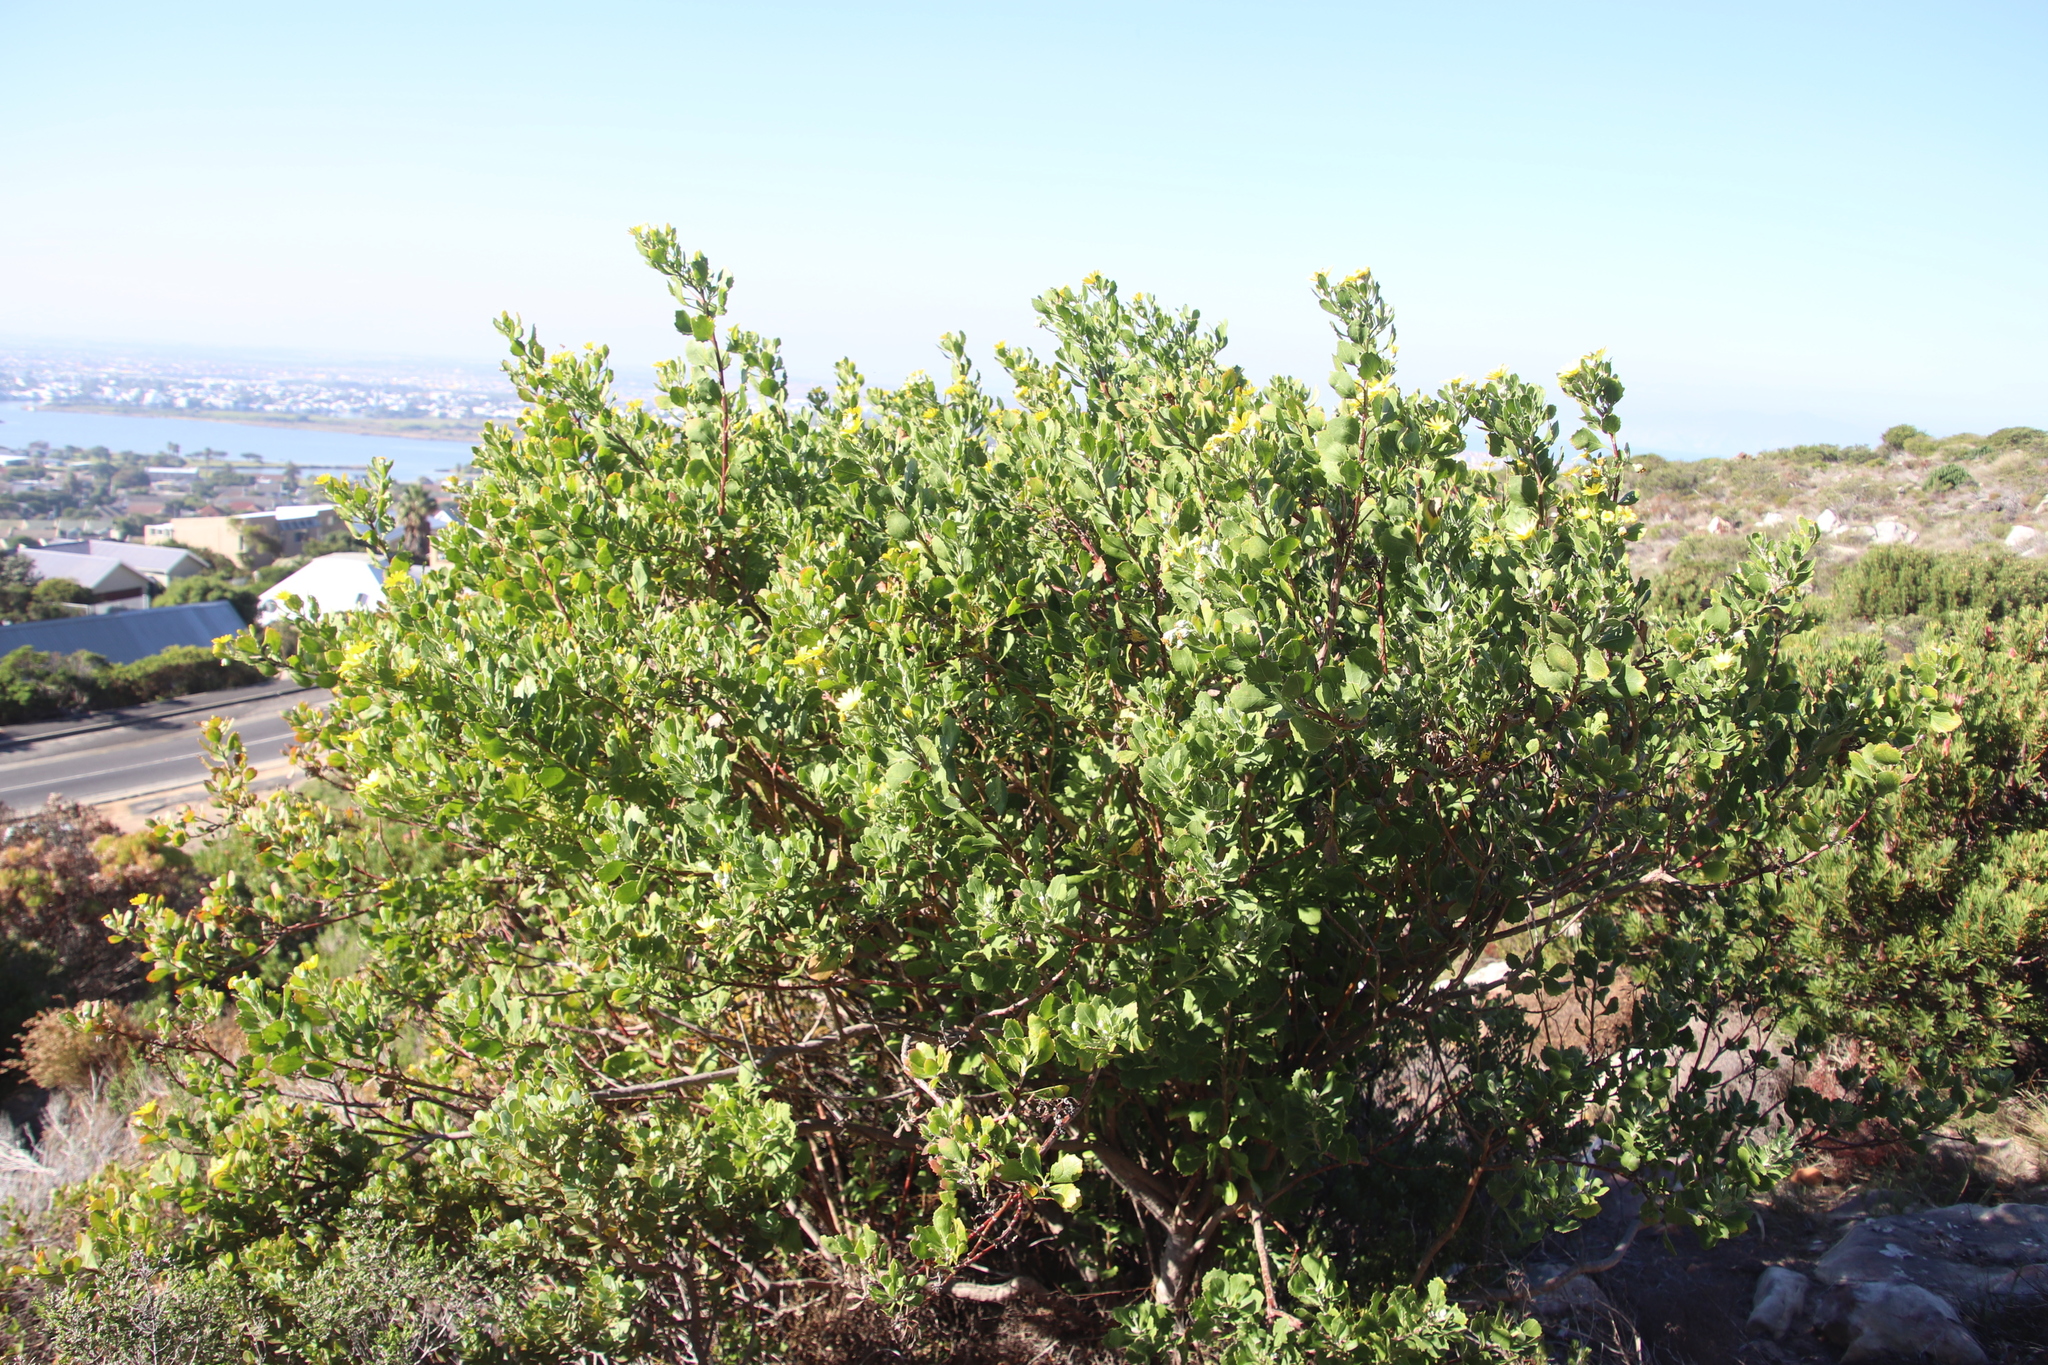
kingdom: Plantae
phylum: Tracheophyta
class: Magnoliopsida
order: Asterales
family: Asteraceae
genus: Osteospermum
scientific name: Osteospermum moniliferum
